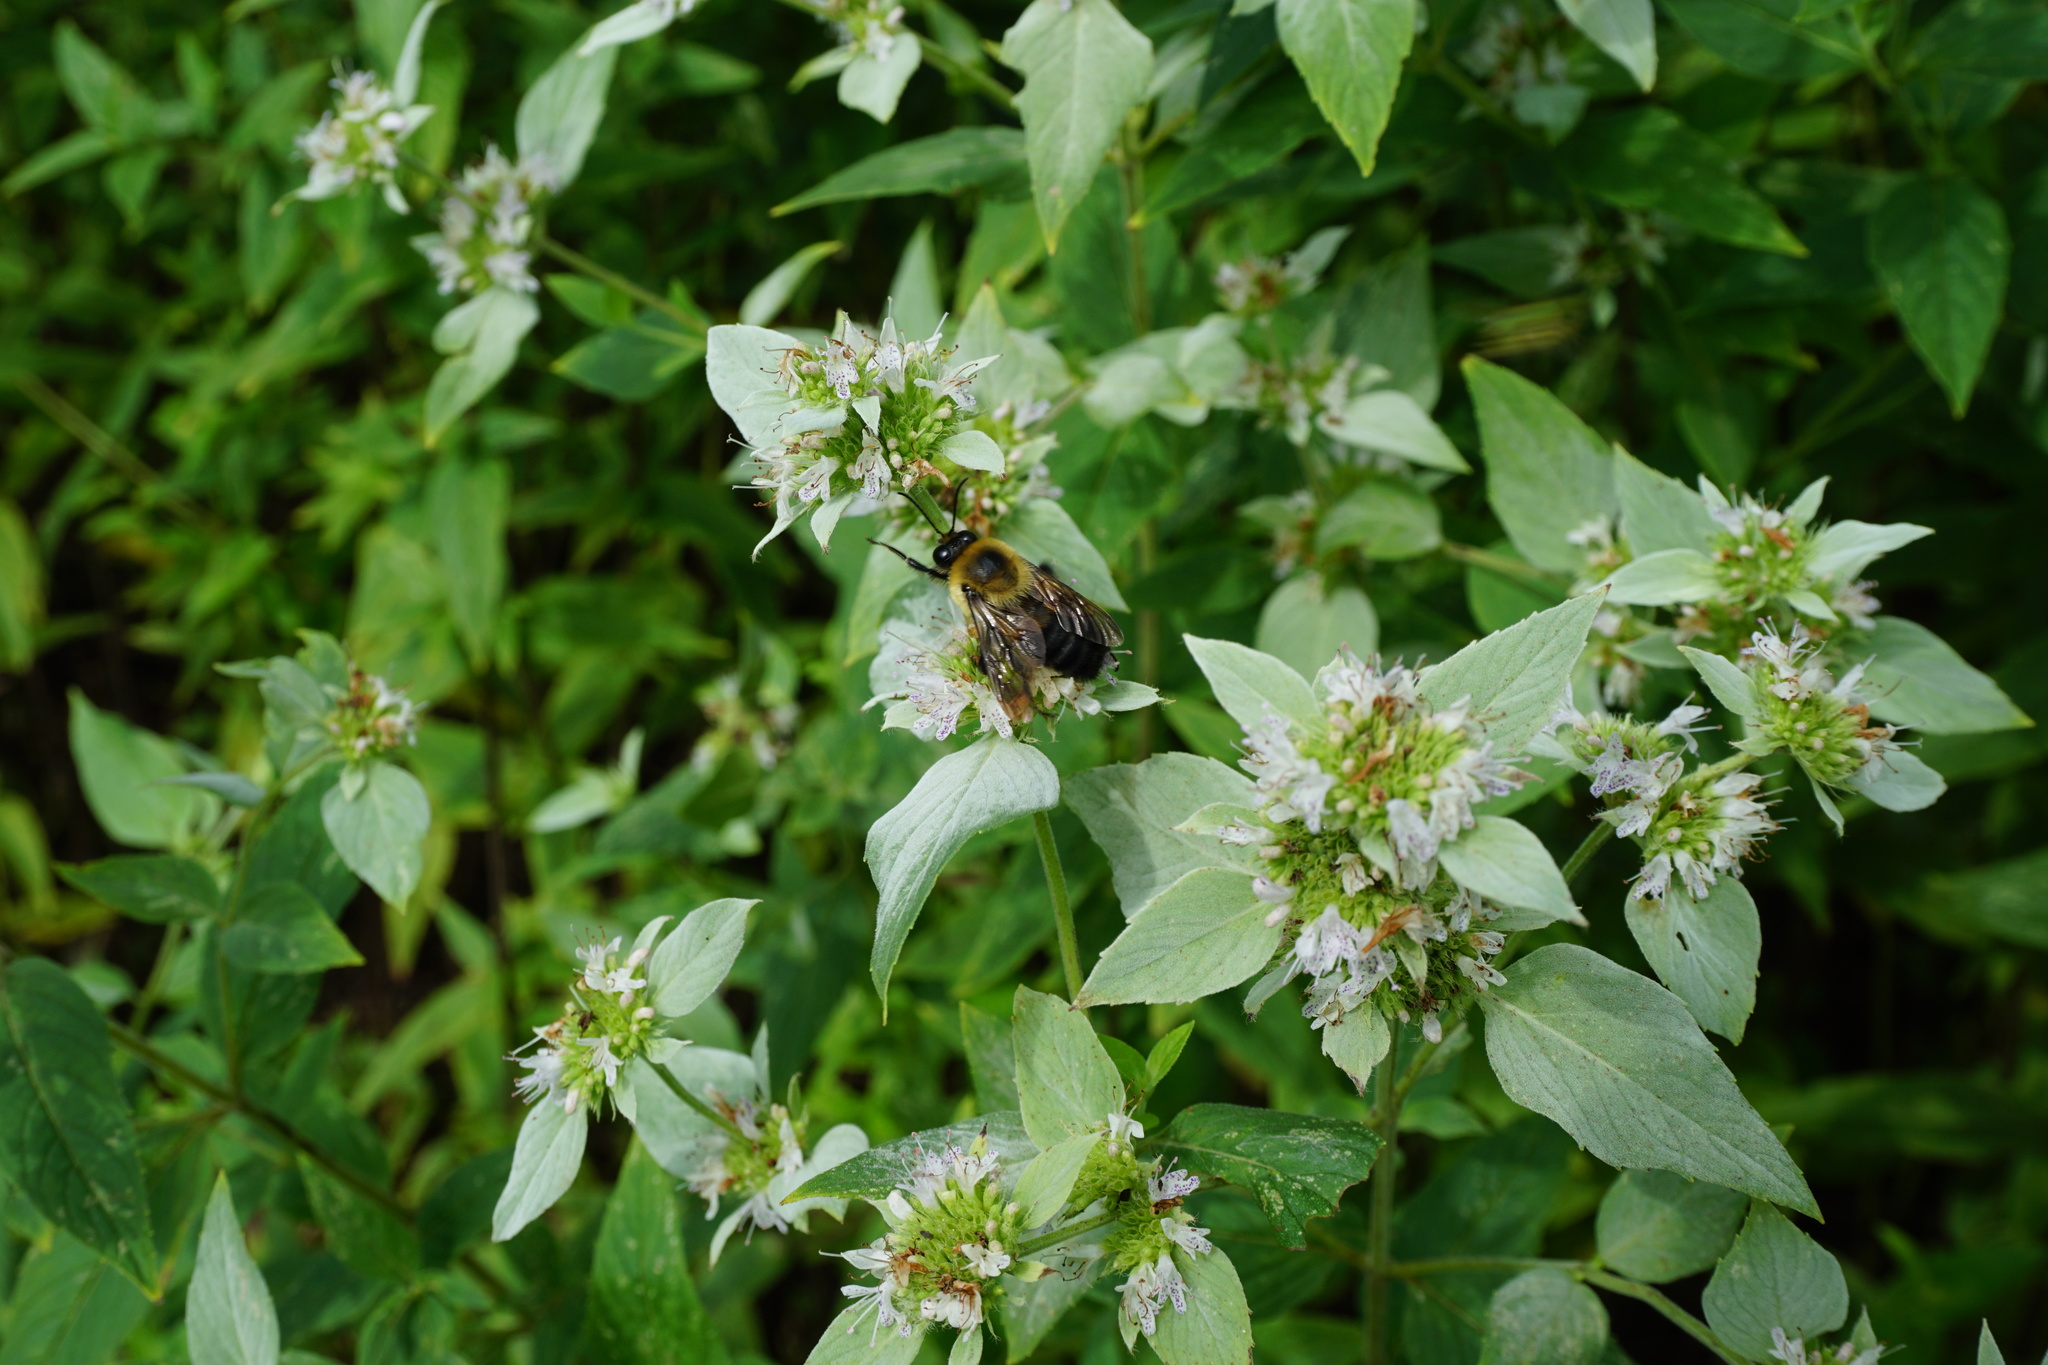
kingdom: Animalia
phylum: Arthropoda
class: Insecta
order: Hymenoptera
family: Apidae
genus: Bombus
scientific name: Bombus griseocollis
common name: Brown-belted bumble bee
